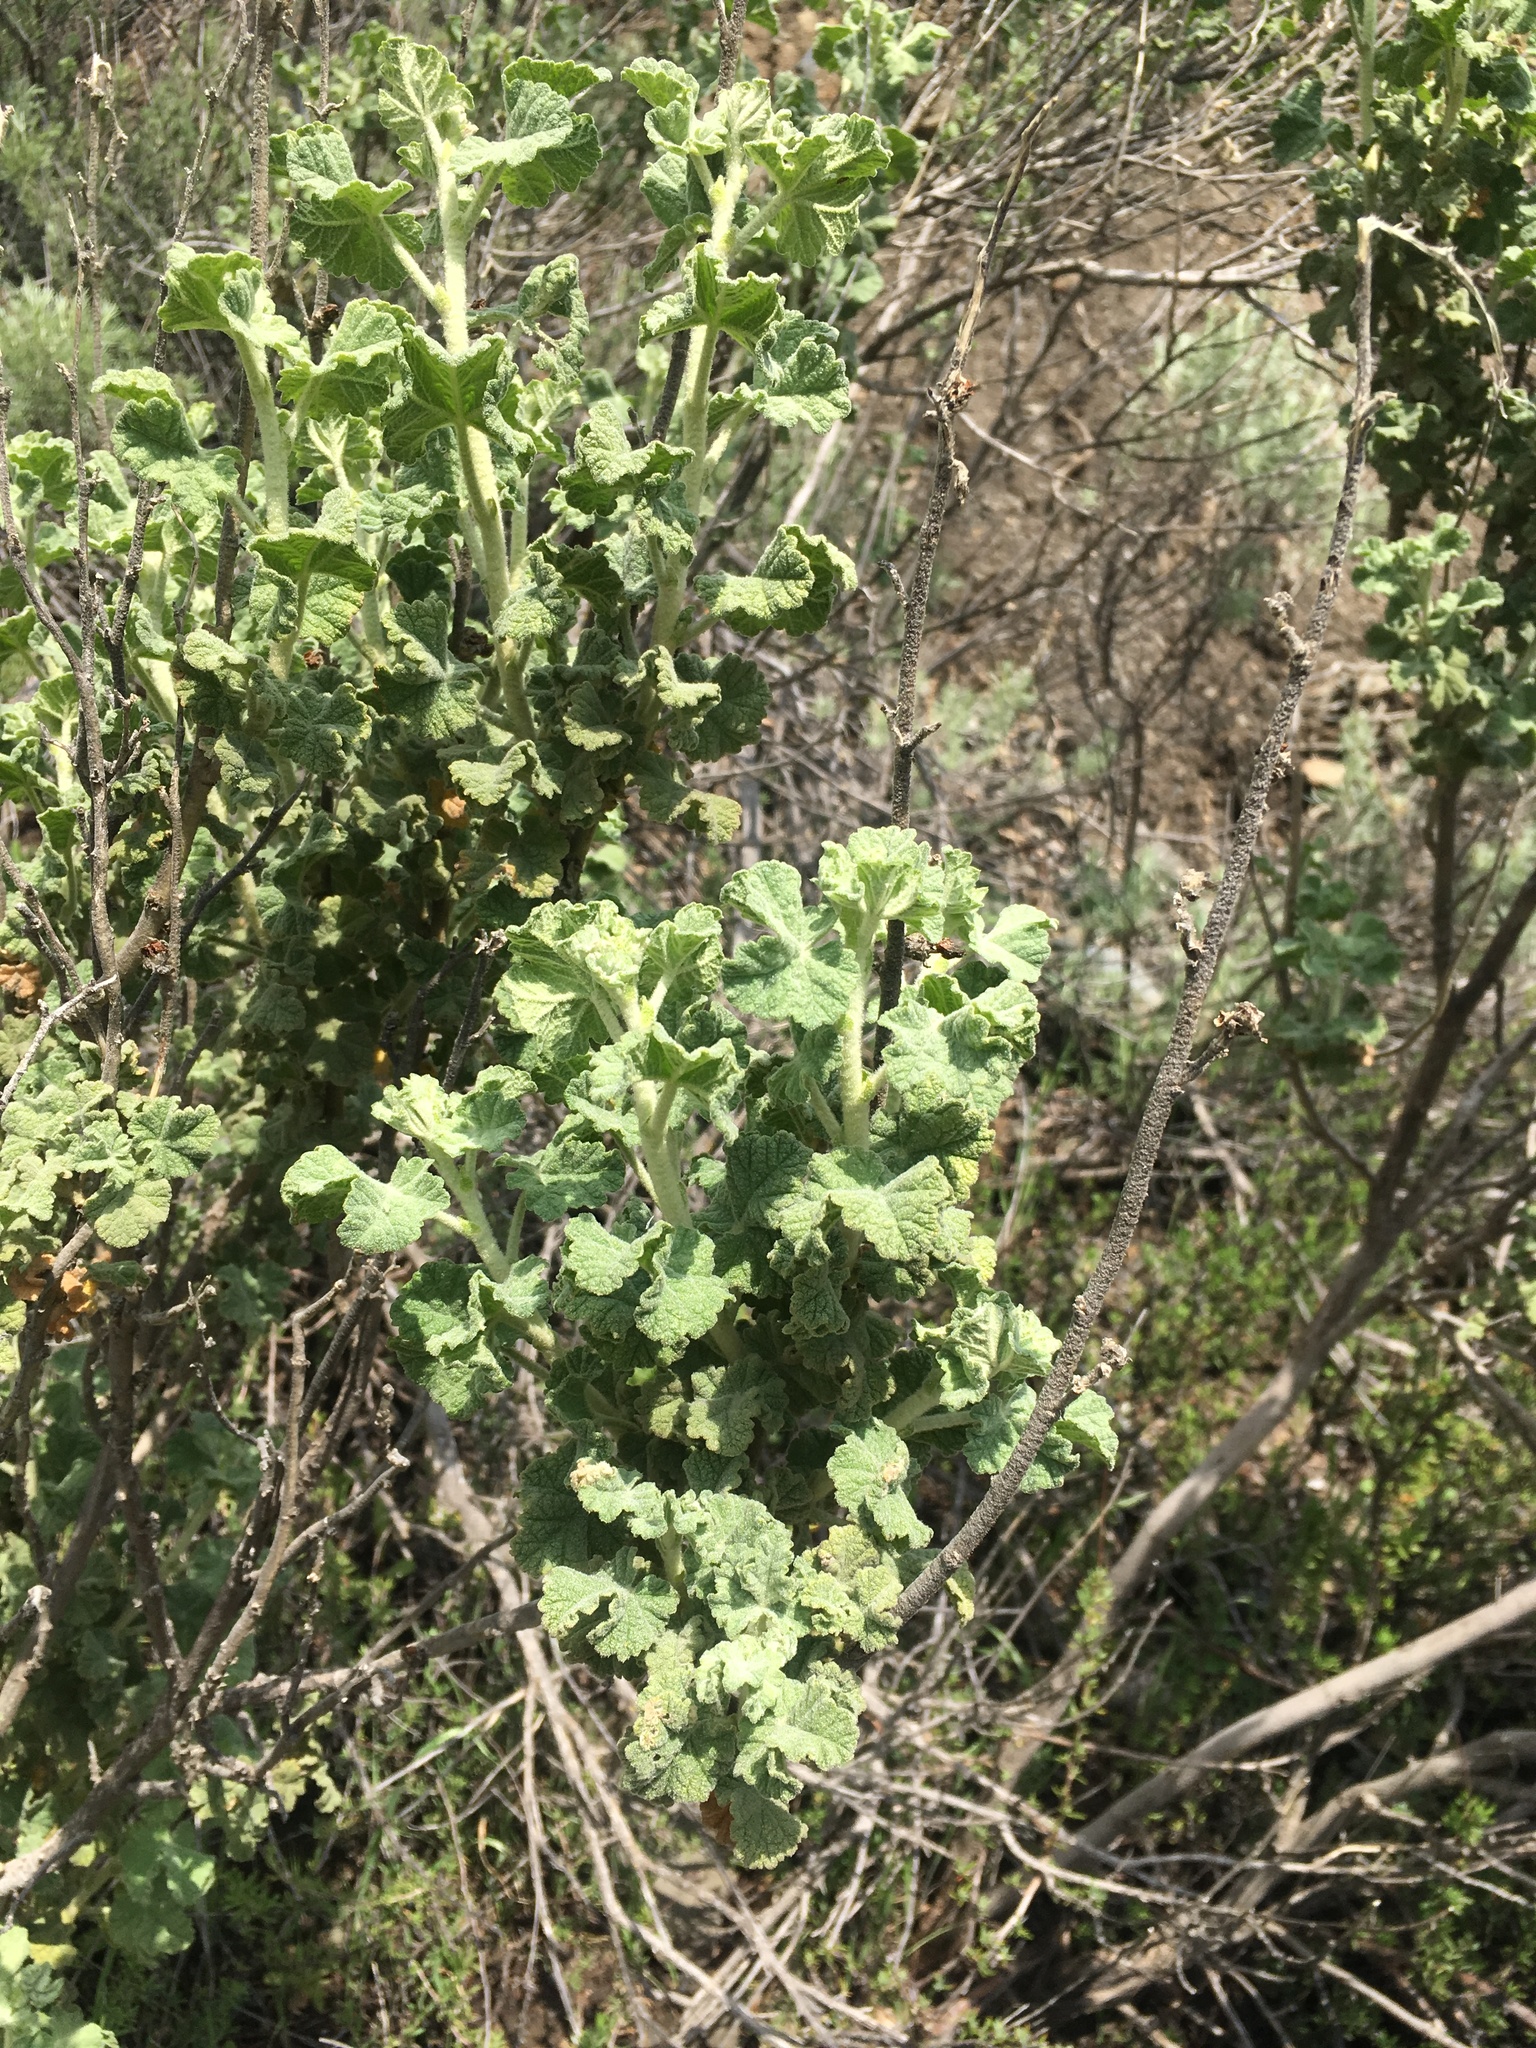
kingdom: Plantae
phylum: Tracheophyta
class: Magnoliopsida
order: Malvales
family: Malvaceae
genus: Malacothamnus
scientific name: Malacothamnus aboriginum
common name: Indian valley bush-mallow
